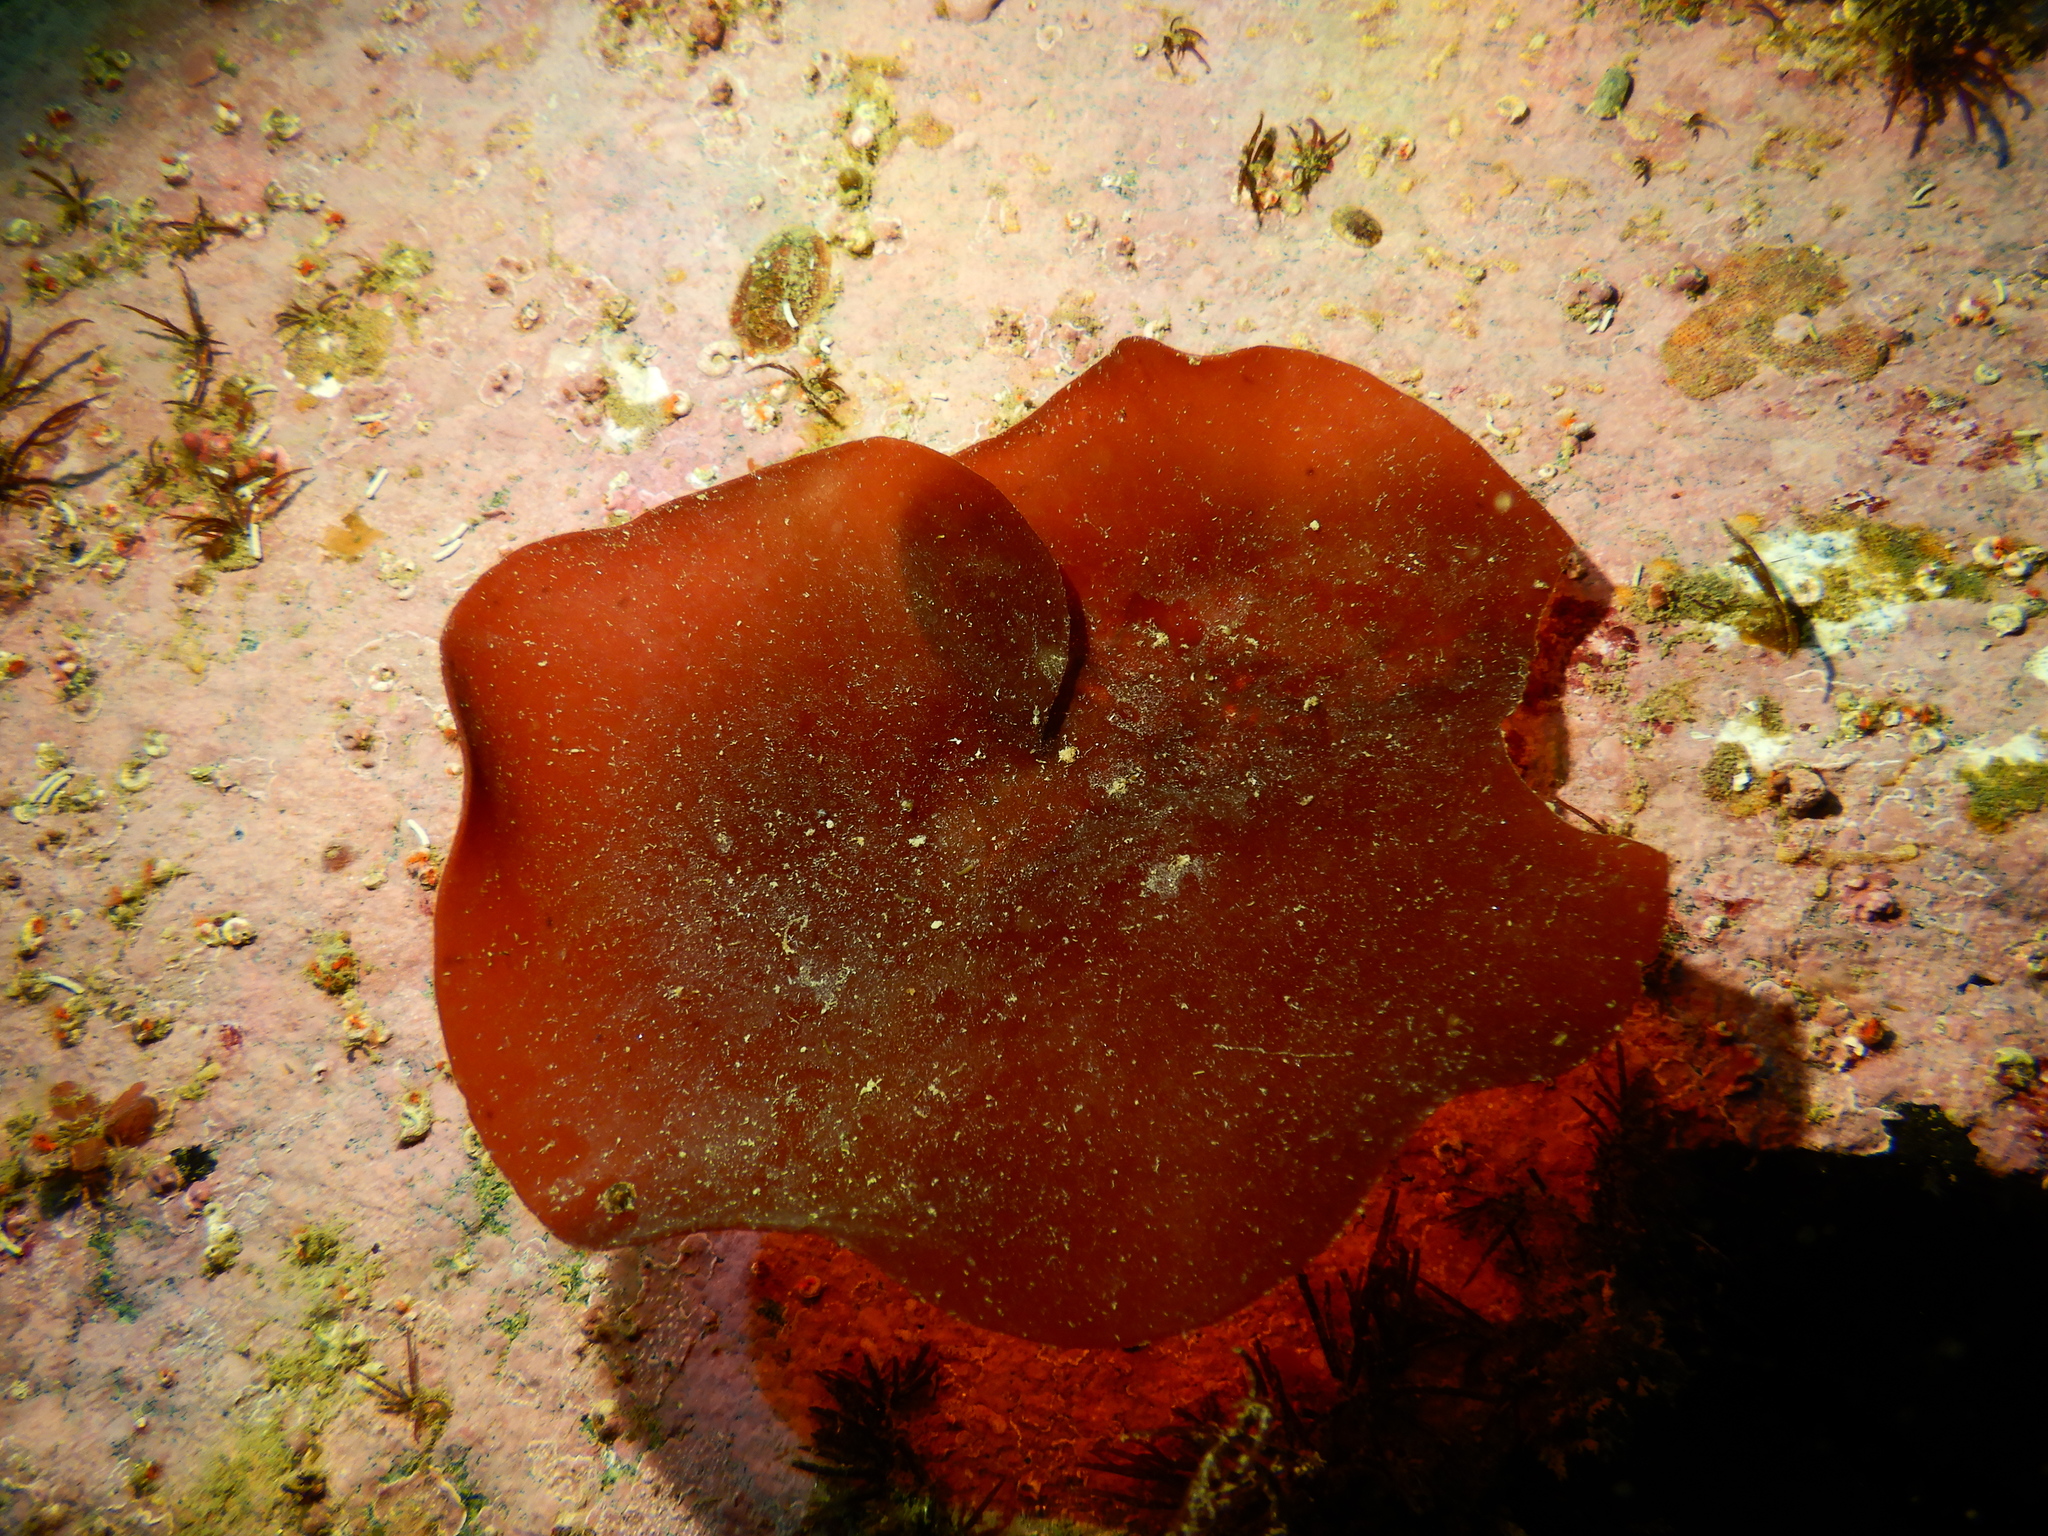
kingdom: Plantae
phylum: Rhodophyta
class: Florideophyceae
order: Gigartinales
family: Gigartinaceae
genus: Sarcopeltis
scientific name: Sarcopeltis skottsbergii
